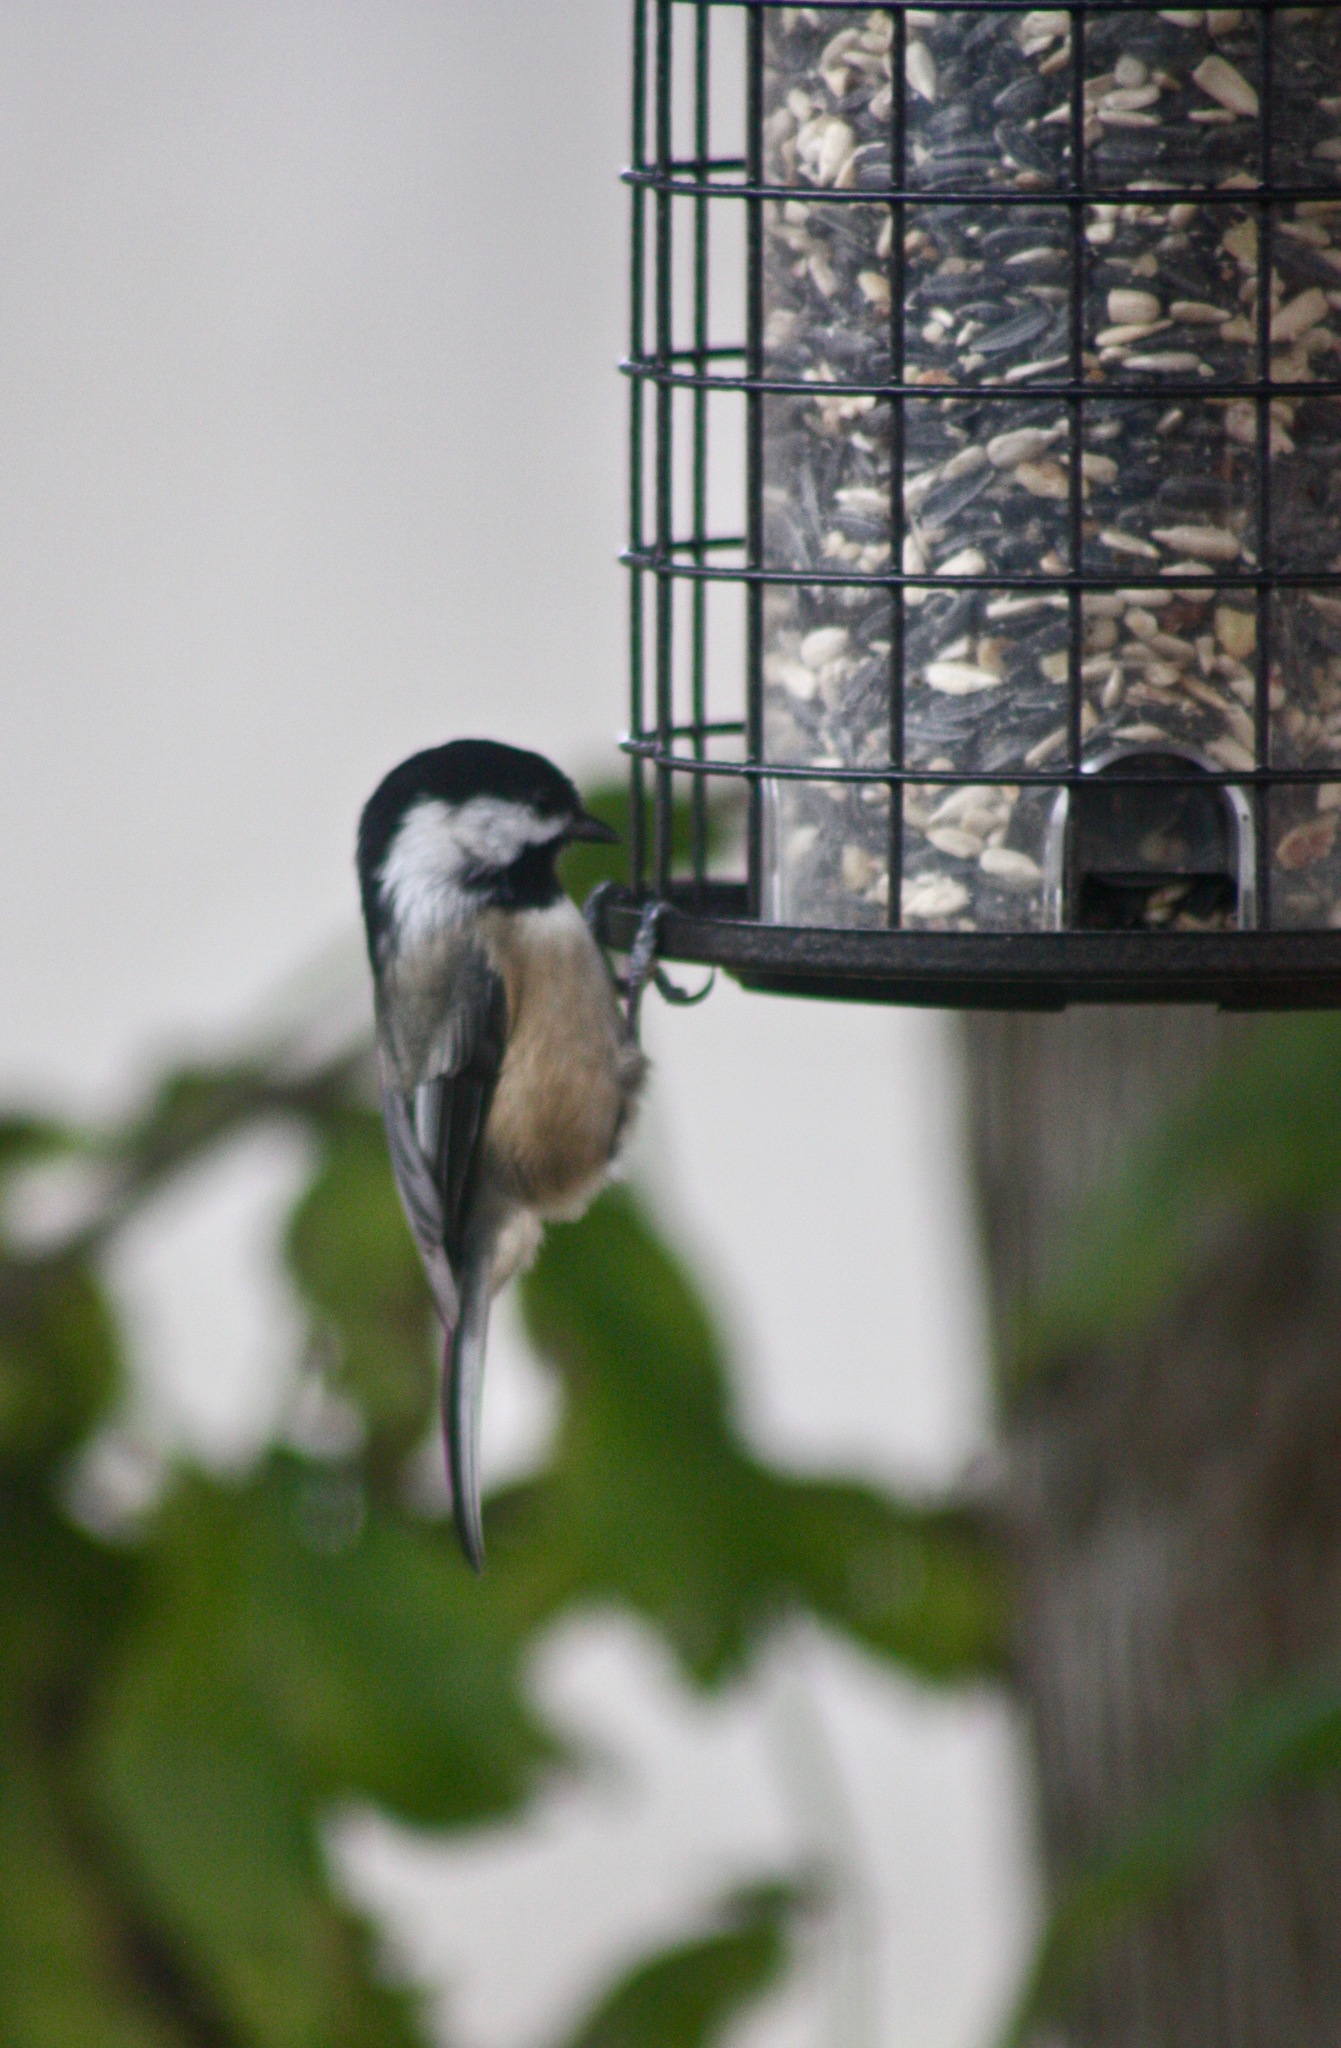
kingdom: Animalia
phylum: Chordata
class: Aves
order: Passeriformes
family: Paridae
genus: Poecile
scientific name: Poecile atricapillus
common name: Black-capped chickadee
